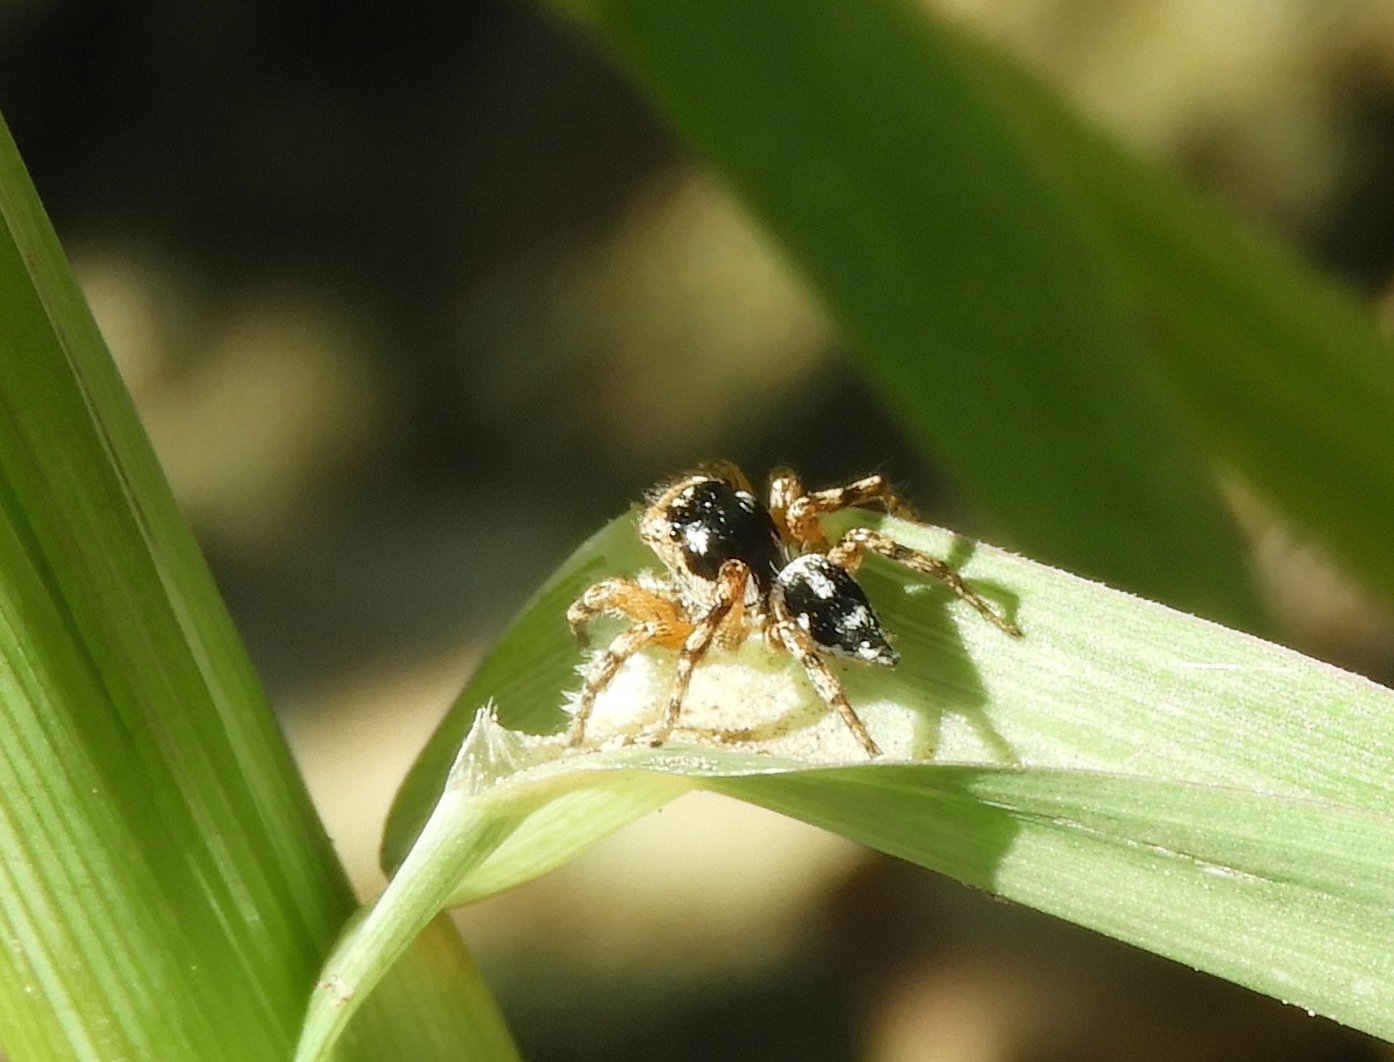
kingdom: Animalia
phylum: Arthropoda
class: Arachnida
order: Araneae
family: Salticidae
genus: Habronattus
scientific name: Habronattus
